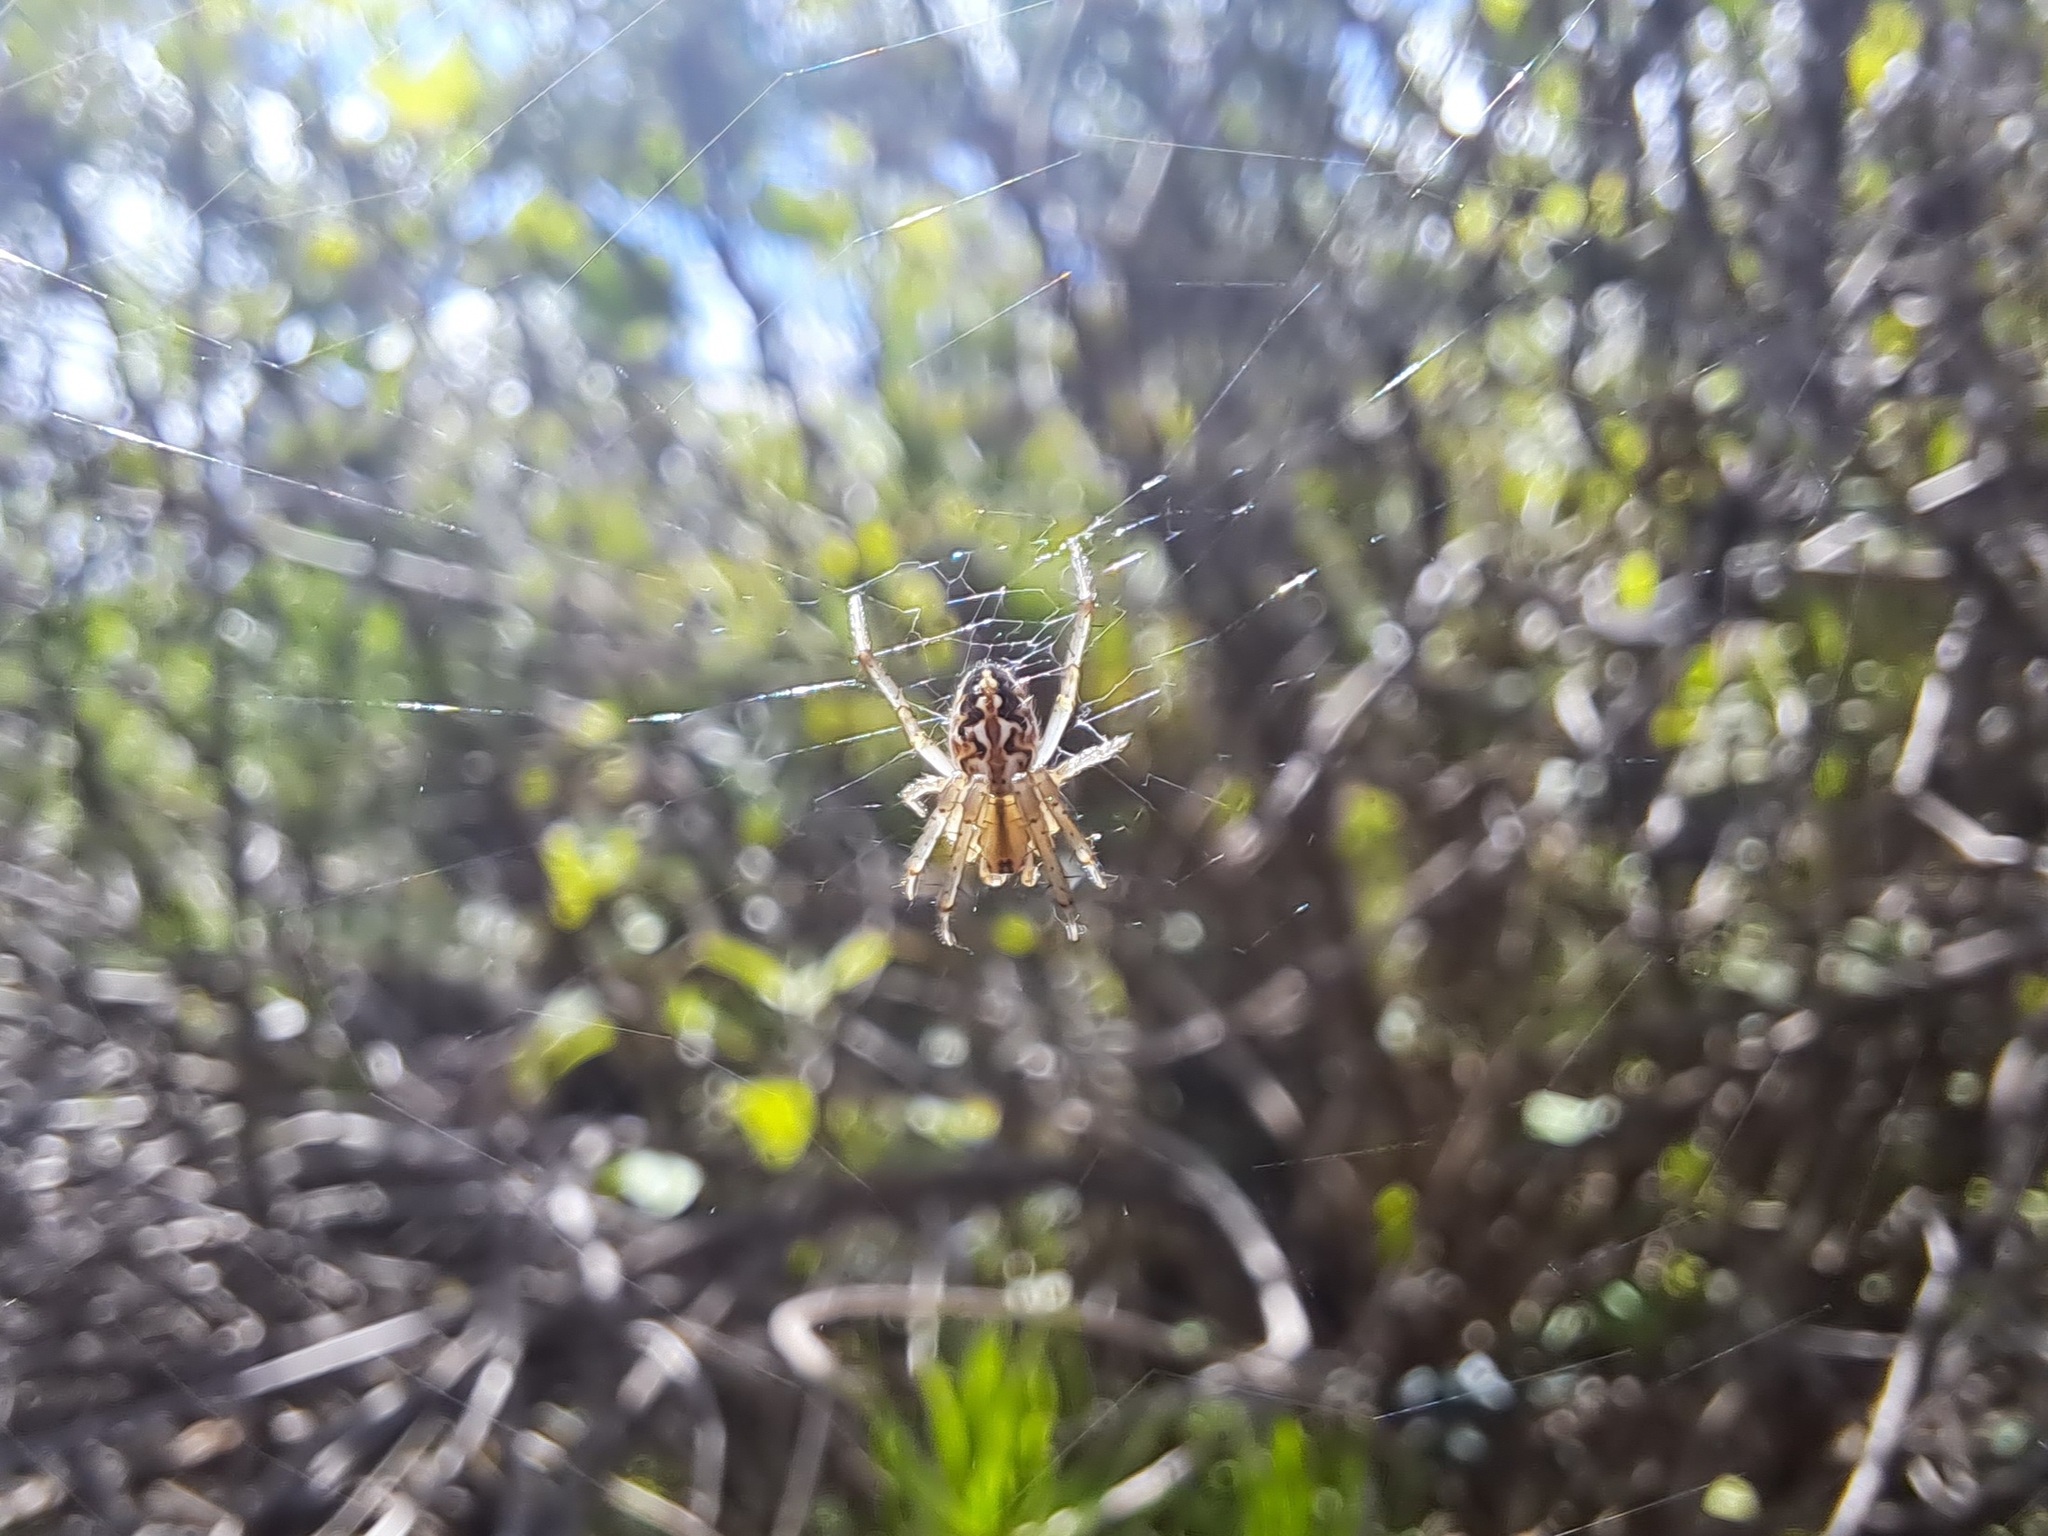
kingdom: Animalia
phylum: Arthropoda
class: Arachnida
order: Araneae
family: Araneidae
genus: Neoscona
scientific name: Neoscona oaxacensis
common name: Orb weavers
